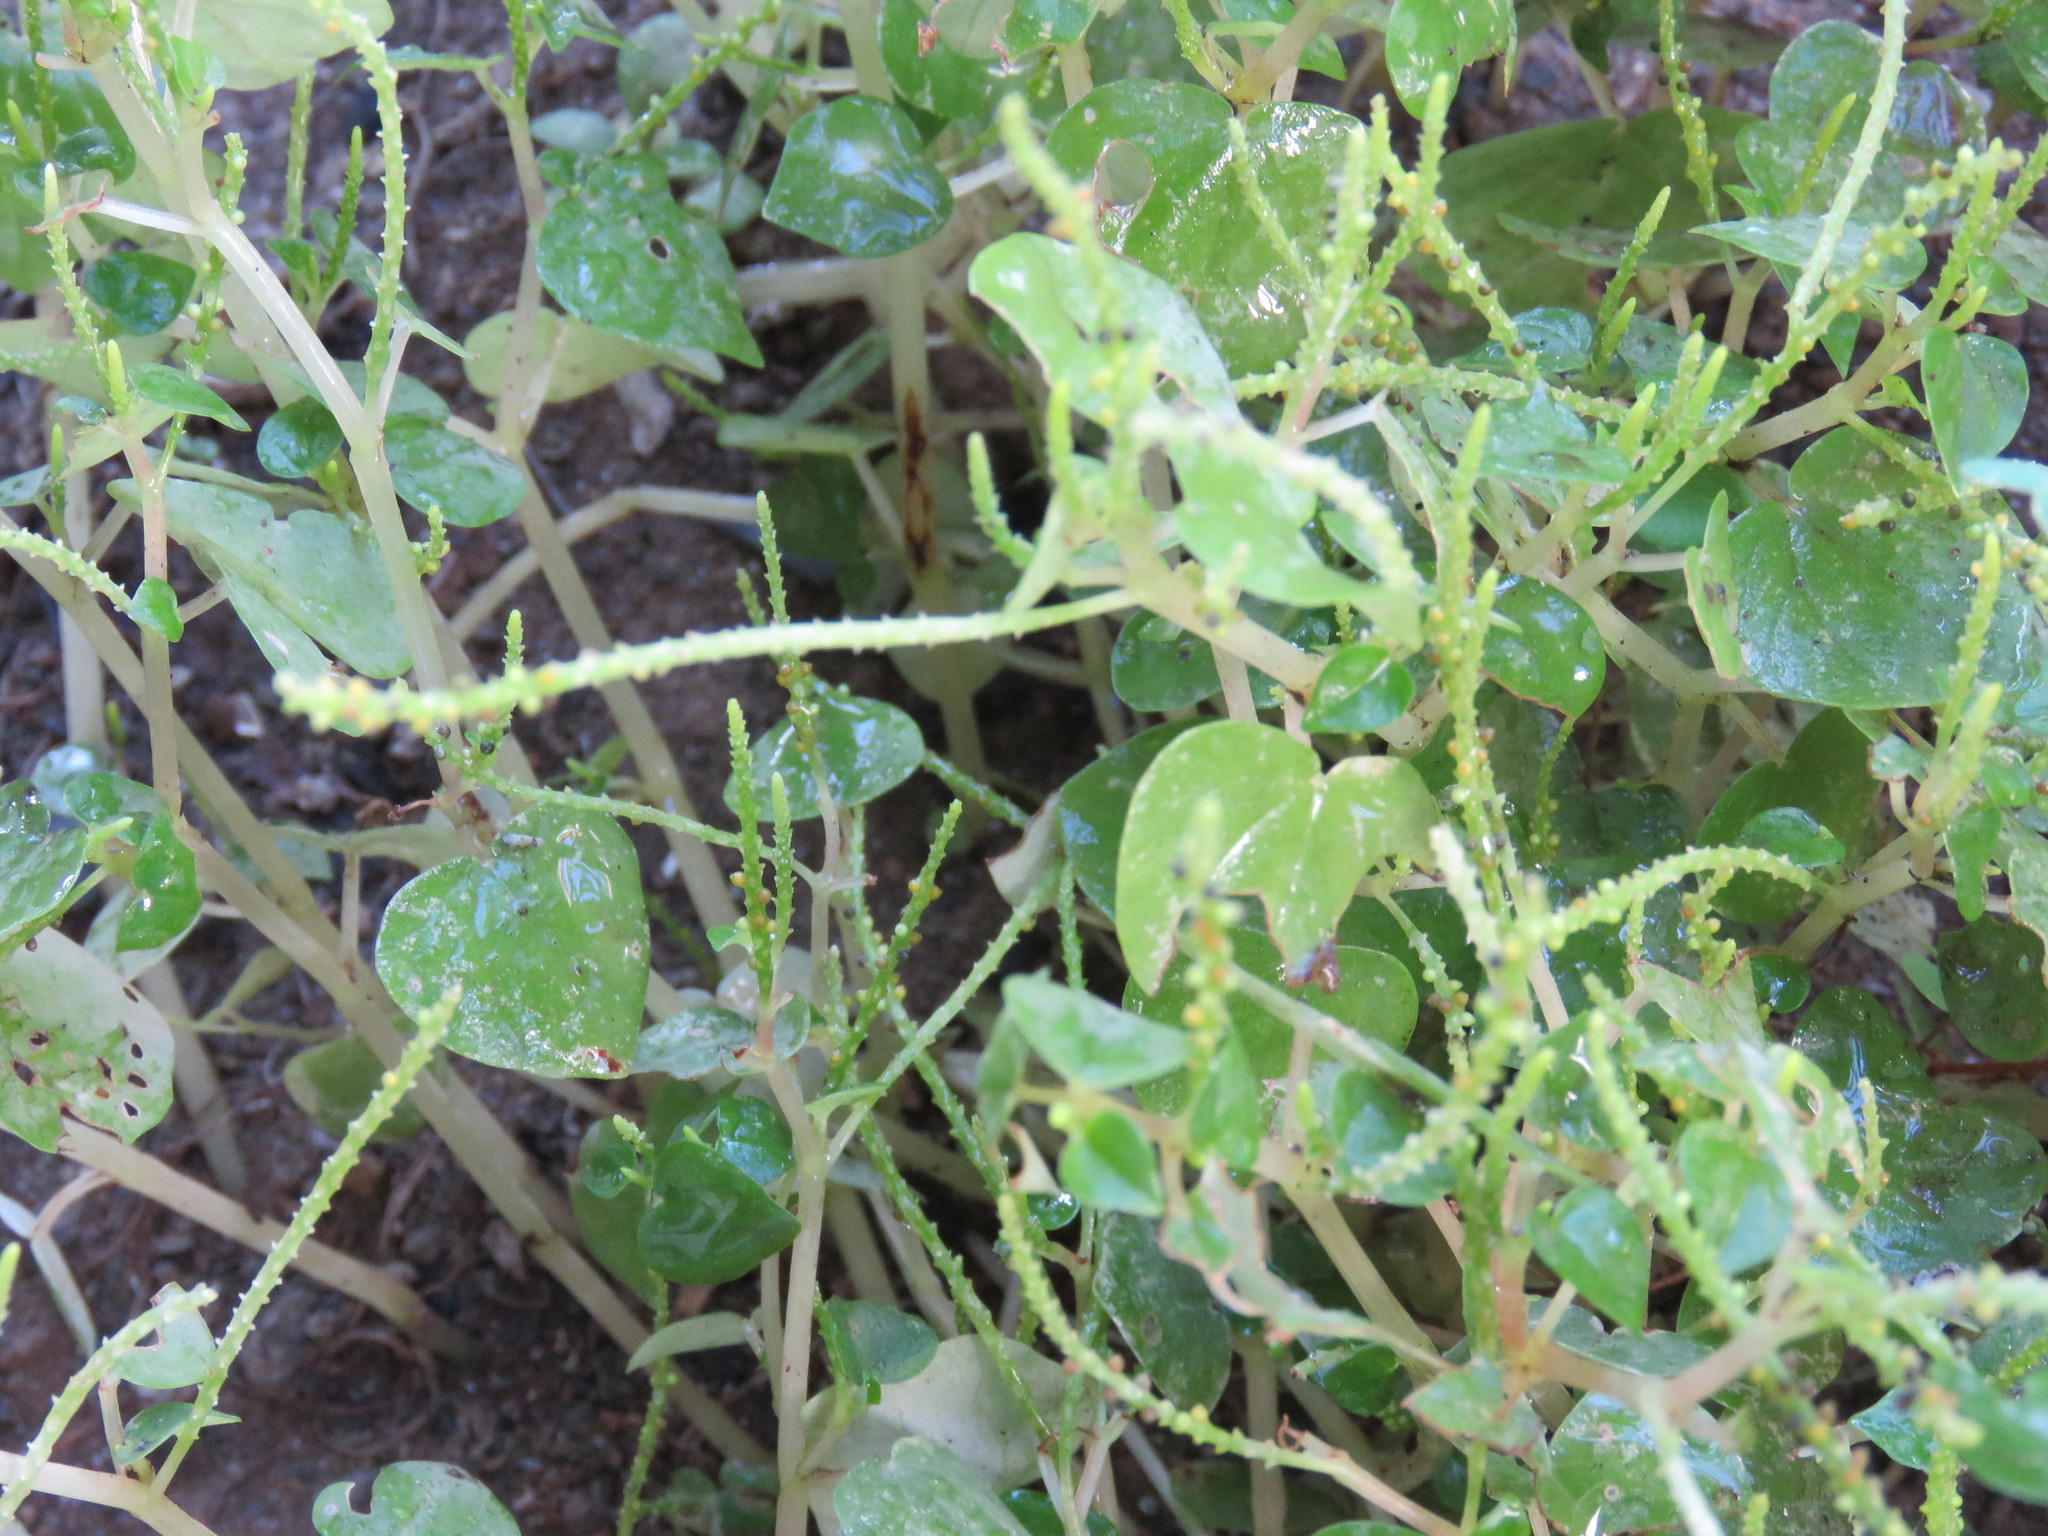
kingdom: Plantae
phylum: Tracheophyta
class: Magnoliopsida
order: Piperales
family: Piperaceae
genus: Peperomia
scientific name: Peperomia pellucida
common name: Man to man
